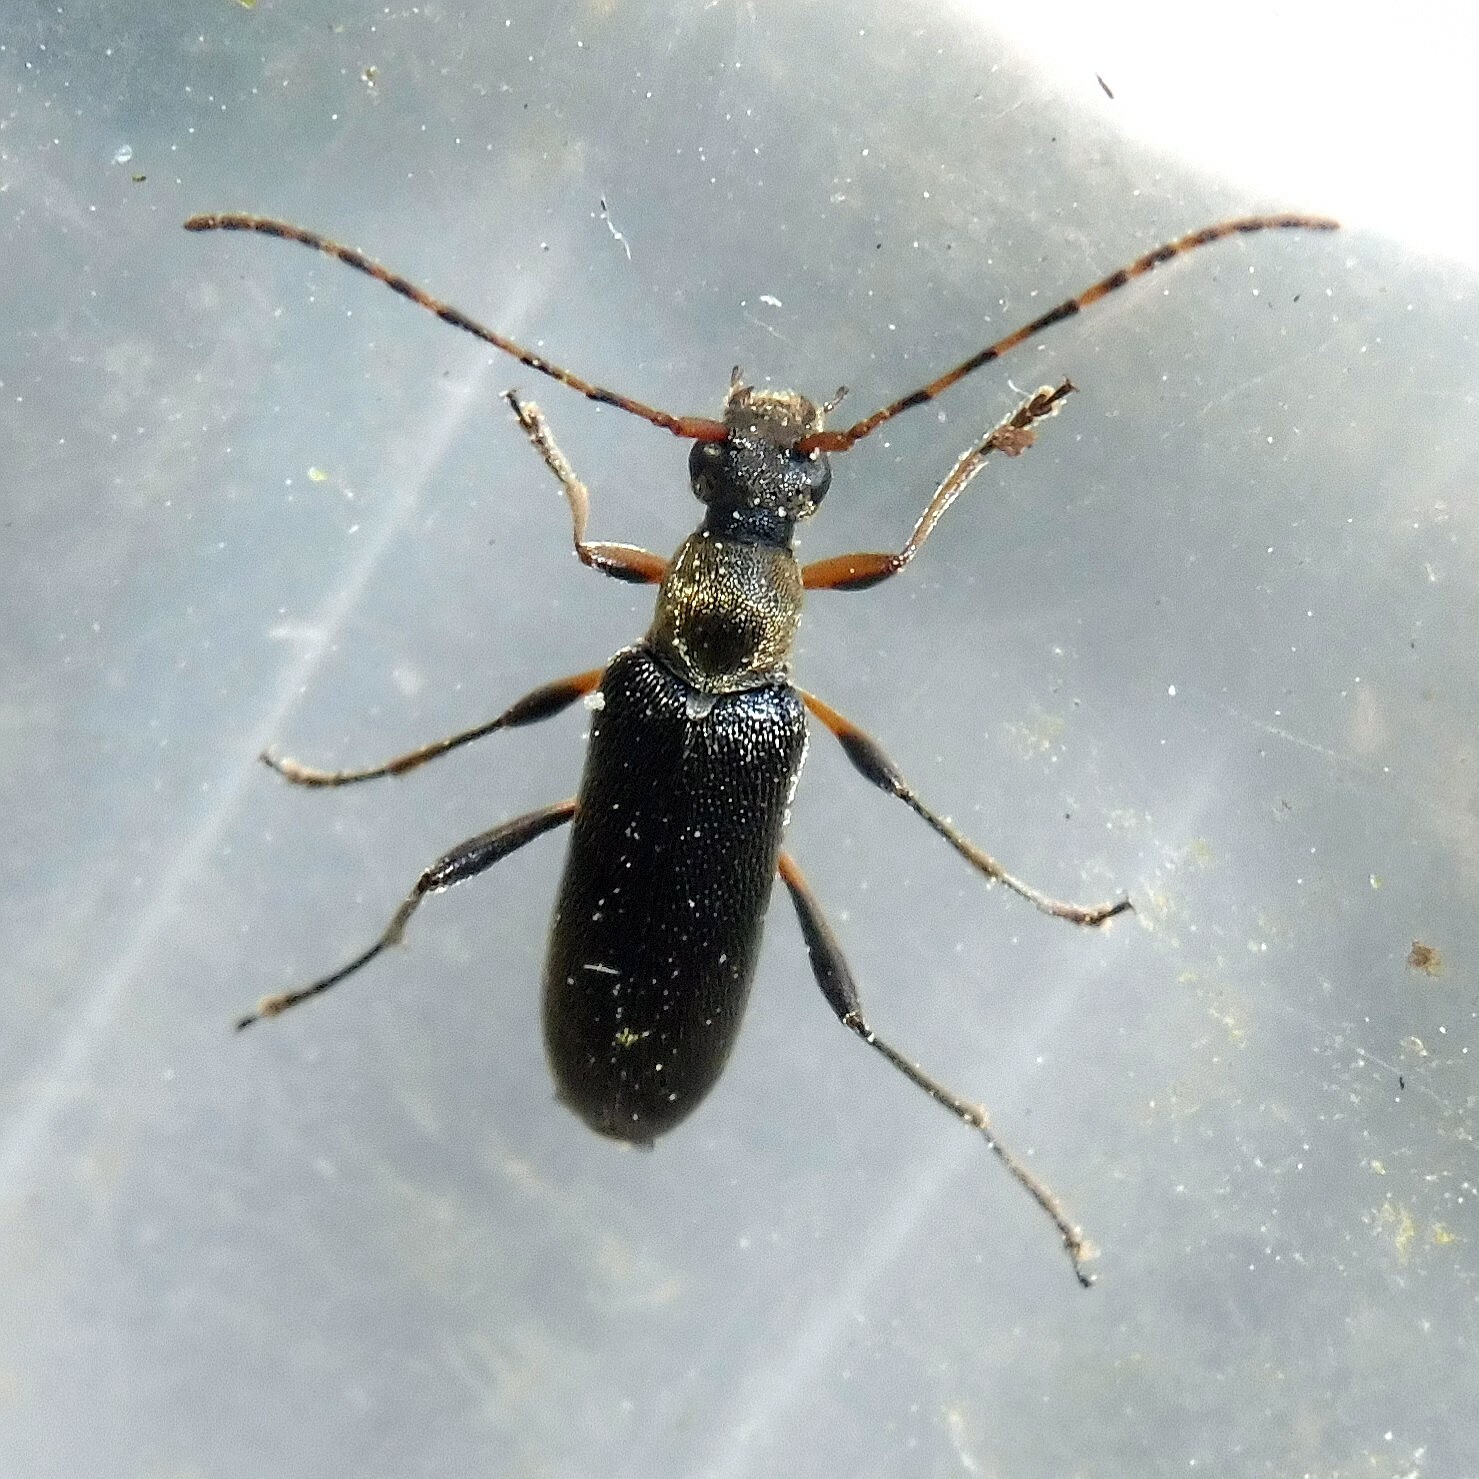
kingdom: Animalia
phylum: Arthropoda
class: Insecta
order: Coleoptera
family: Cerambycidae
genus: Grammoptera
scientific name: Grammoptera ruficornis
